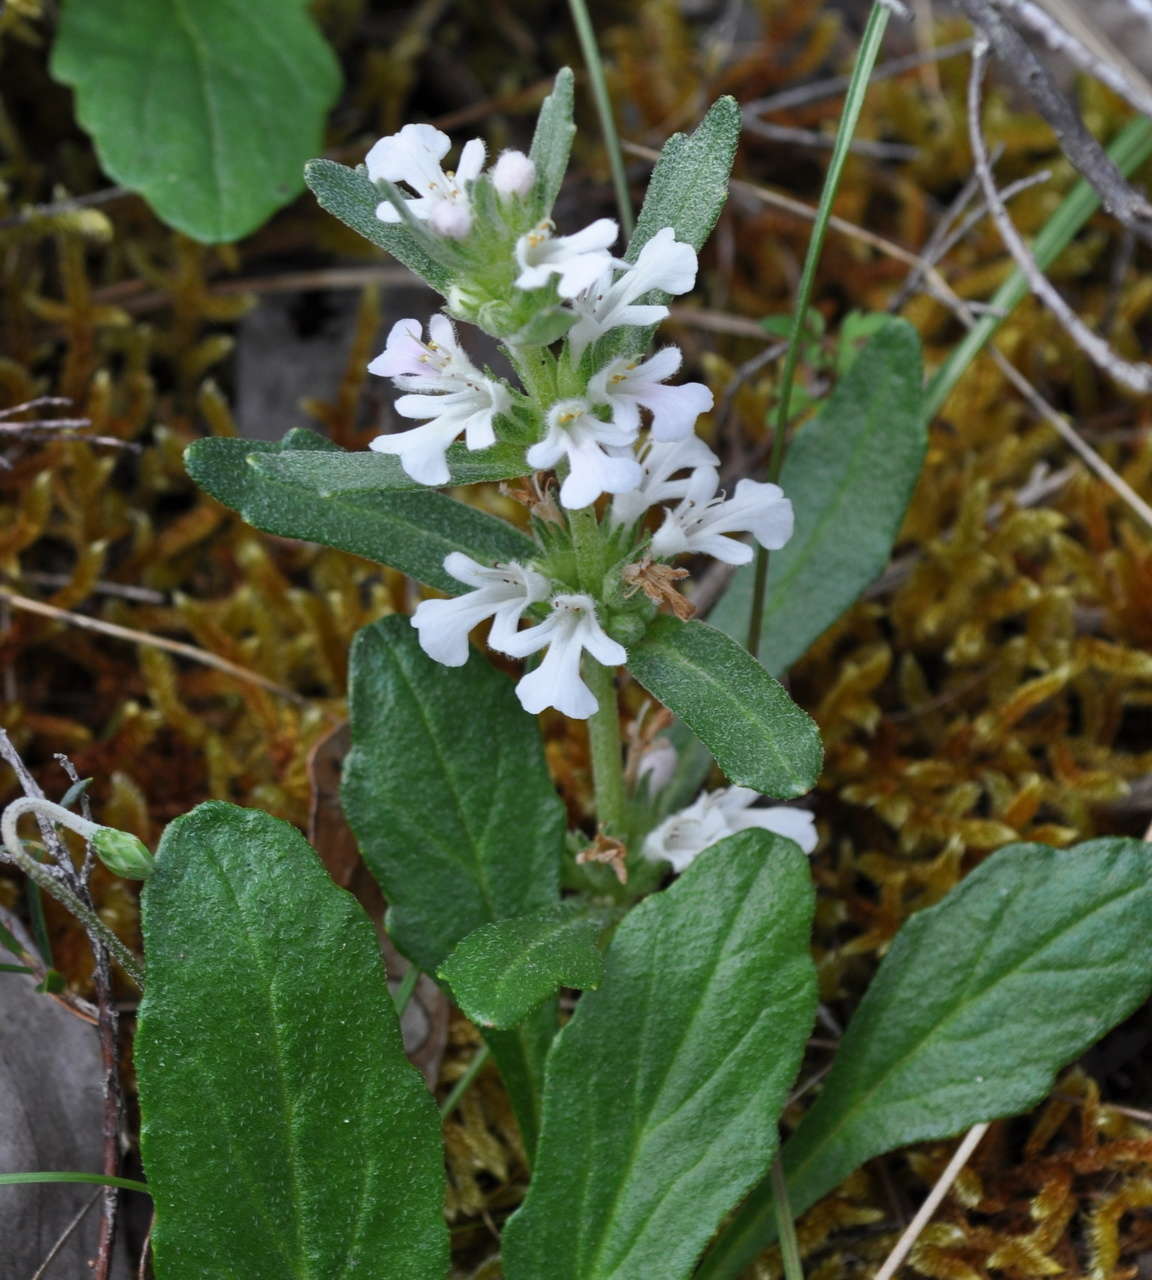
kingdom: Plantae
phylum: Tracheophyta
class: Magnoliopsida
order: Lamiales
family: Lamiaceae
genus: Ajuga
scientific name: Ajuga australis
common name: Australian bugle
